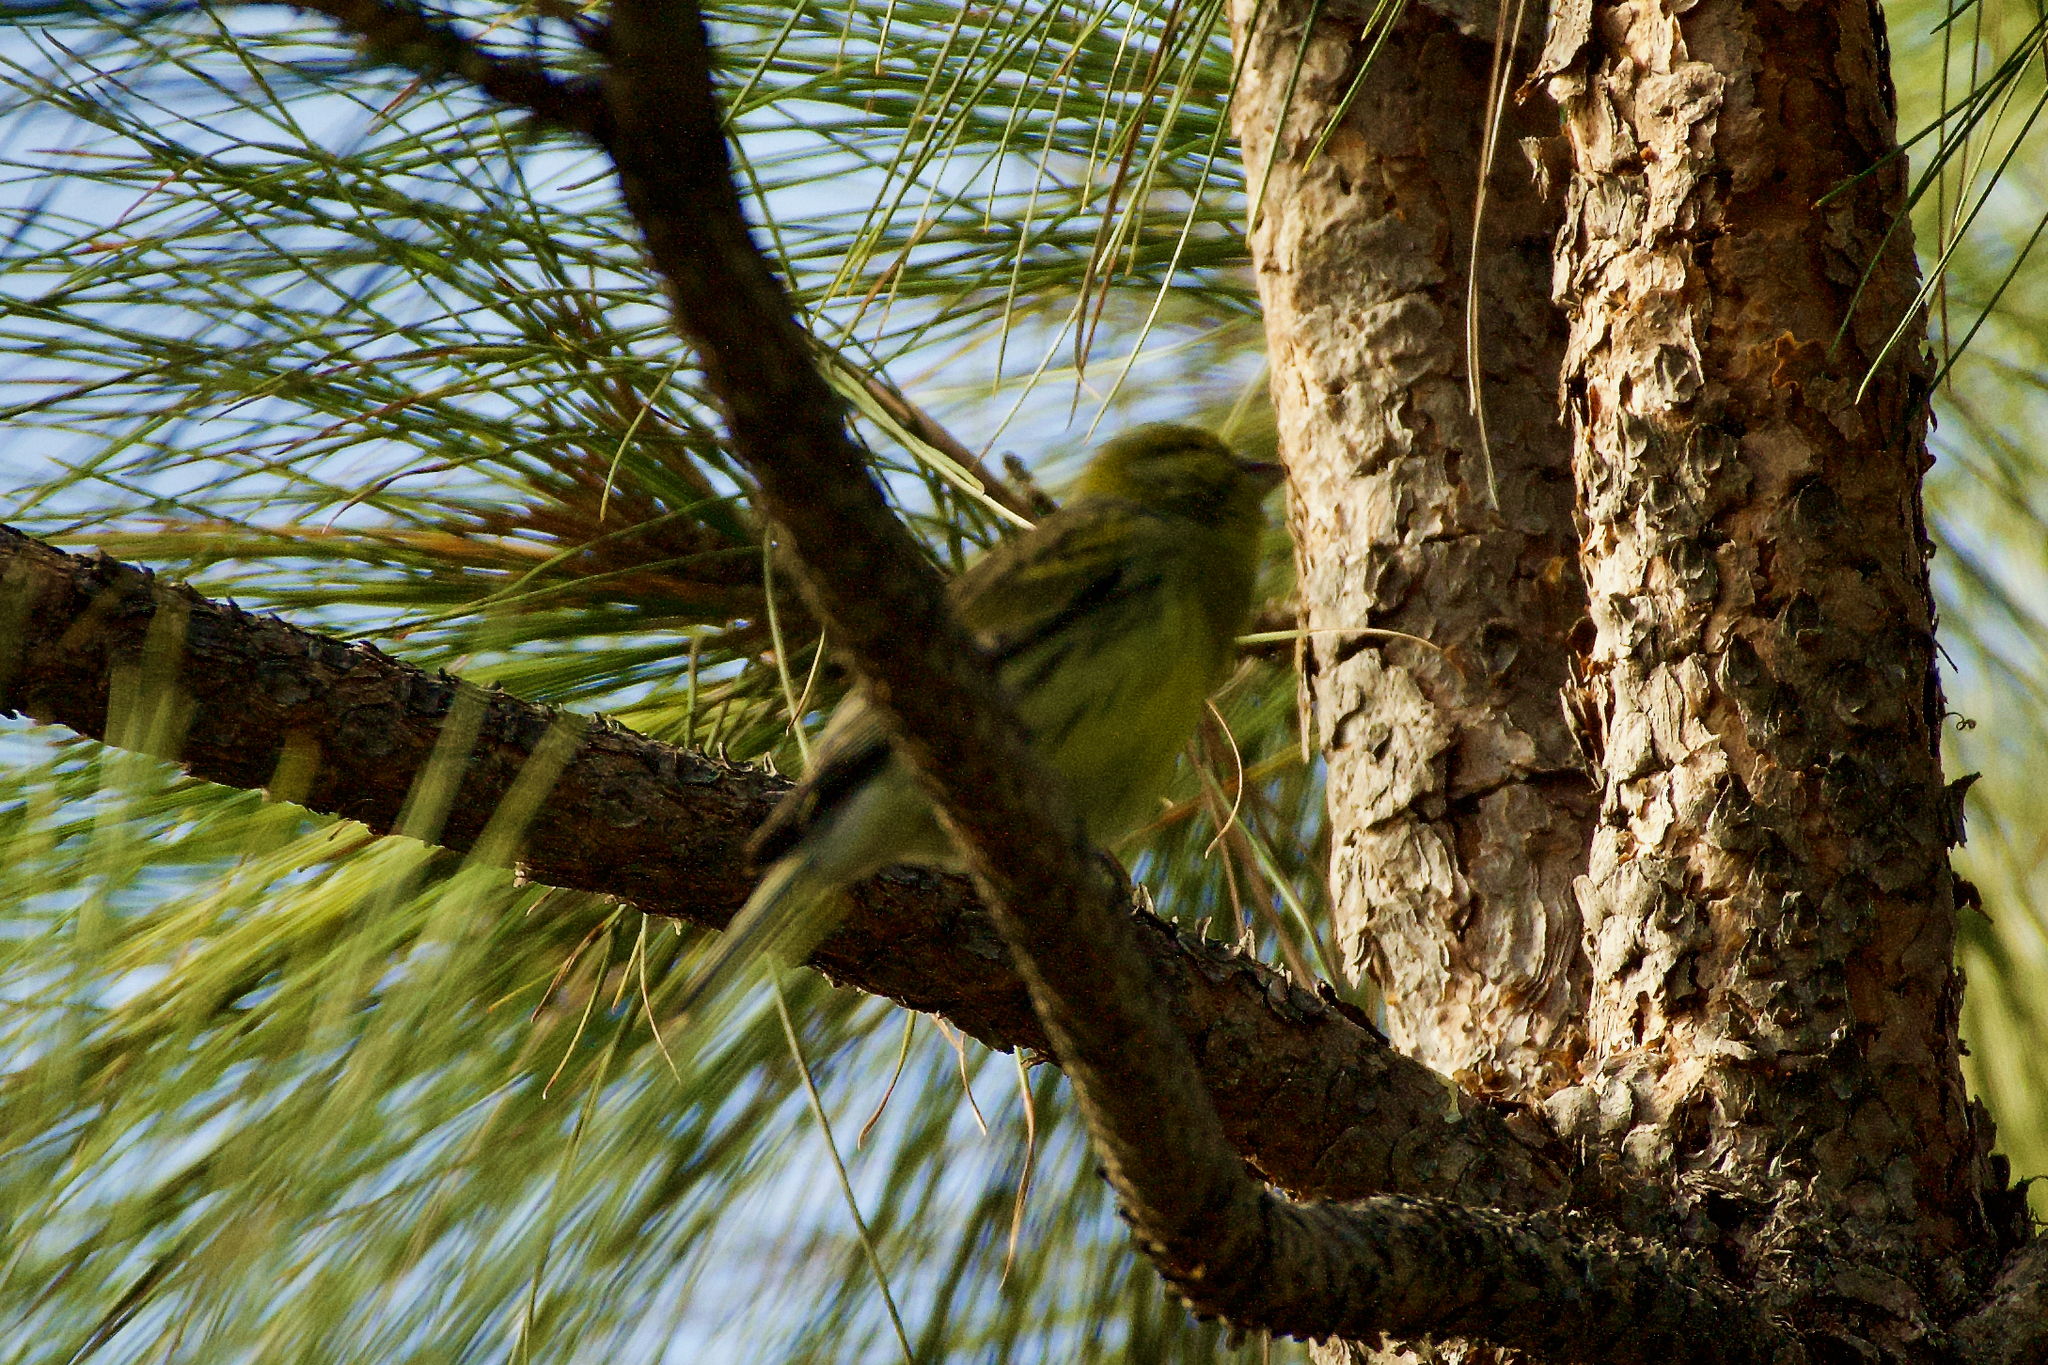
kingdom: Animalia
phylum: Chordata
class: Aves
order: Passeriformes
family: Fringillidae
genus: Serinus
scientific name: Serinus canaria
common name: Atlantic canary
